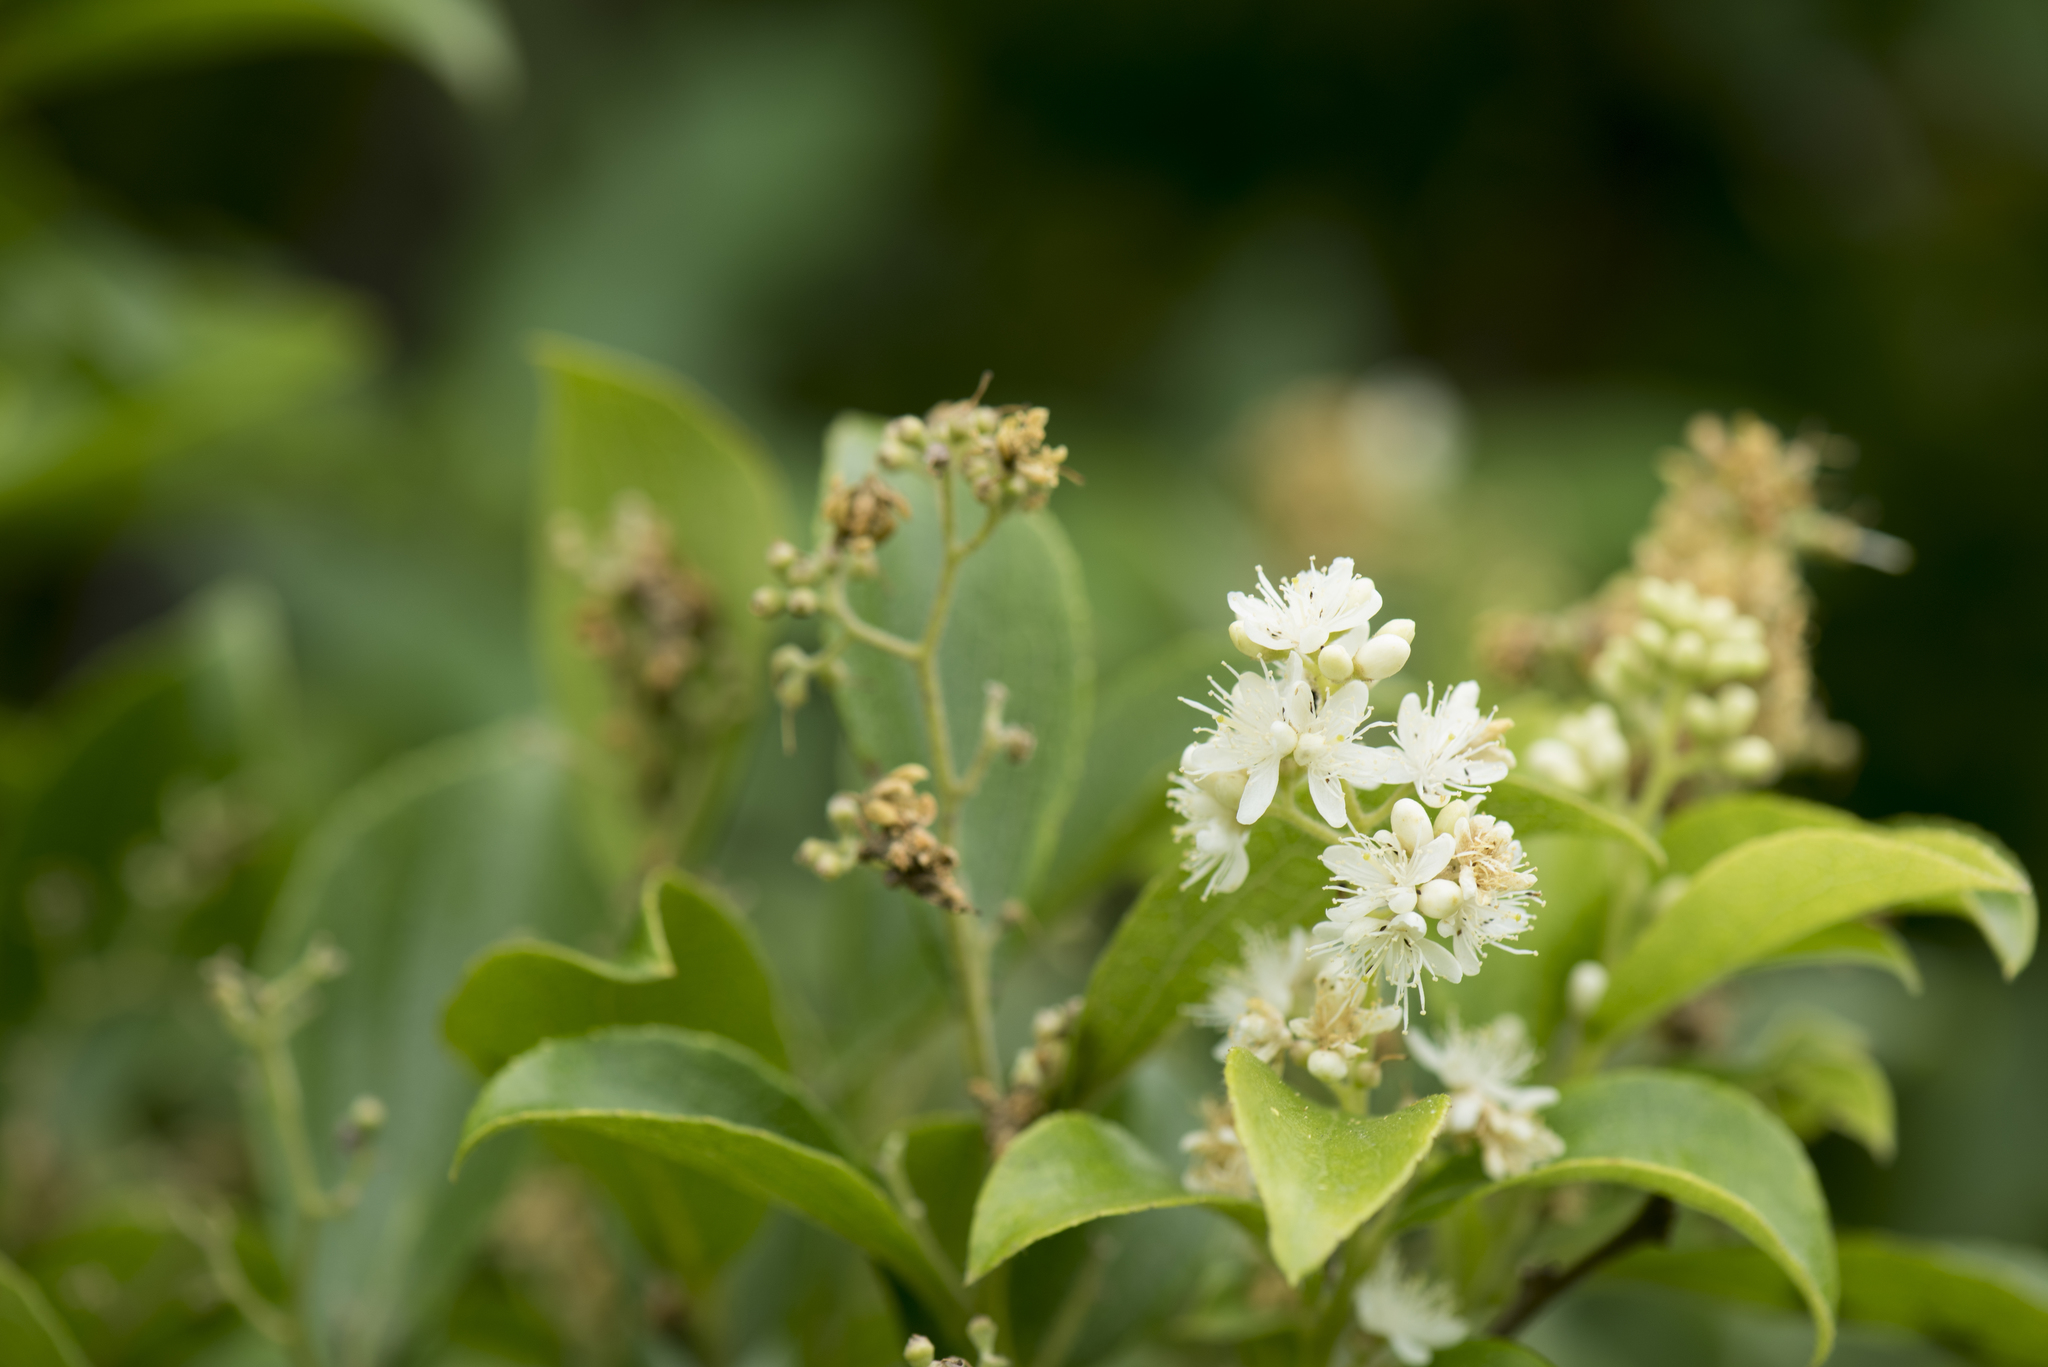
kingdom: Plantae
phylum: Tracheophyta
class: Magnoliopsida
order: Ericales
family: Symplocaceae
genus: Symplocos
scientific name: Symplocos paniculata
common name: Sapphire-berry
